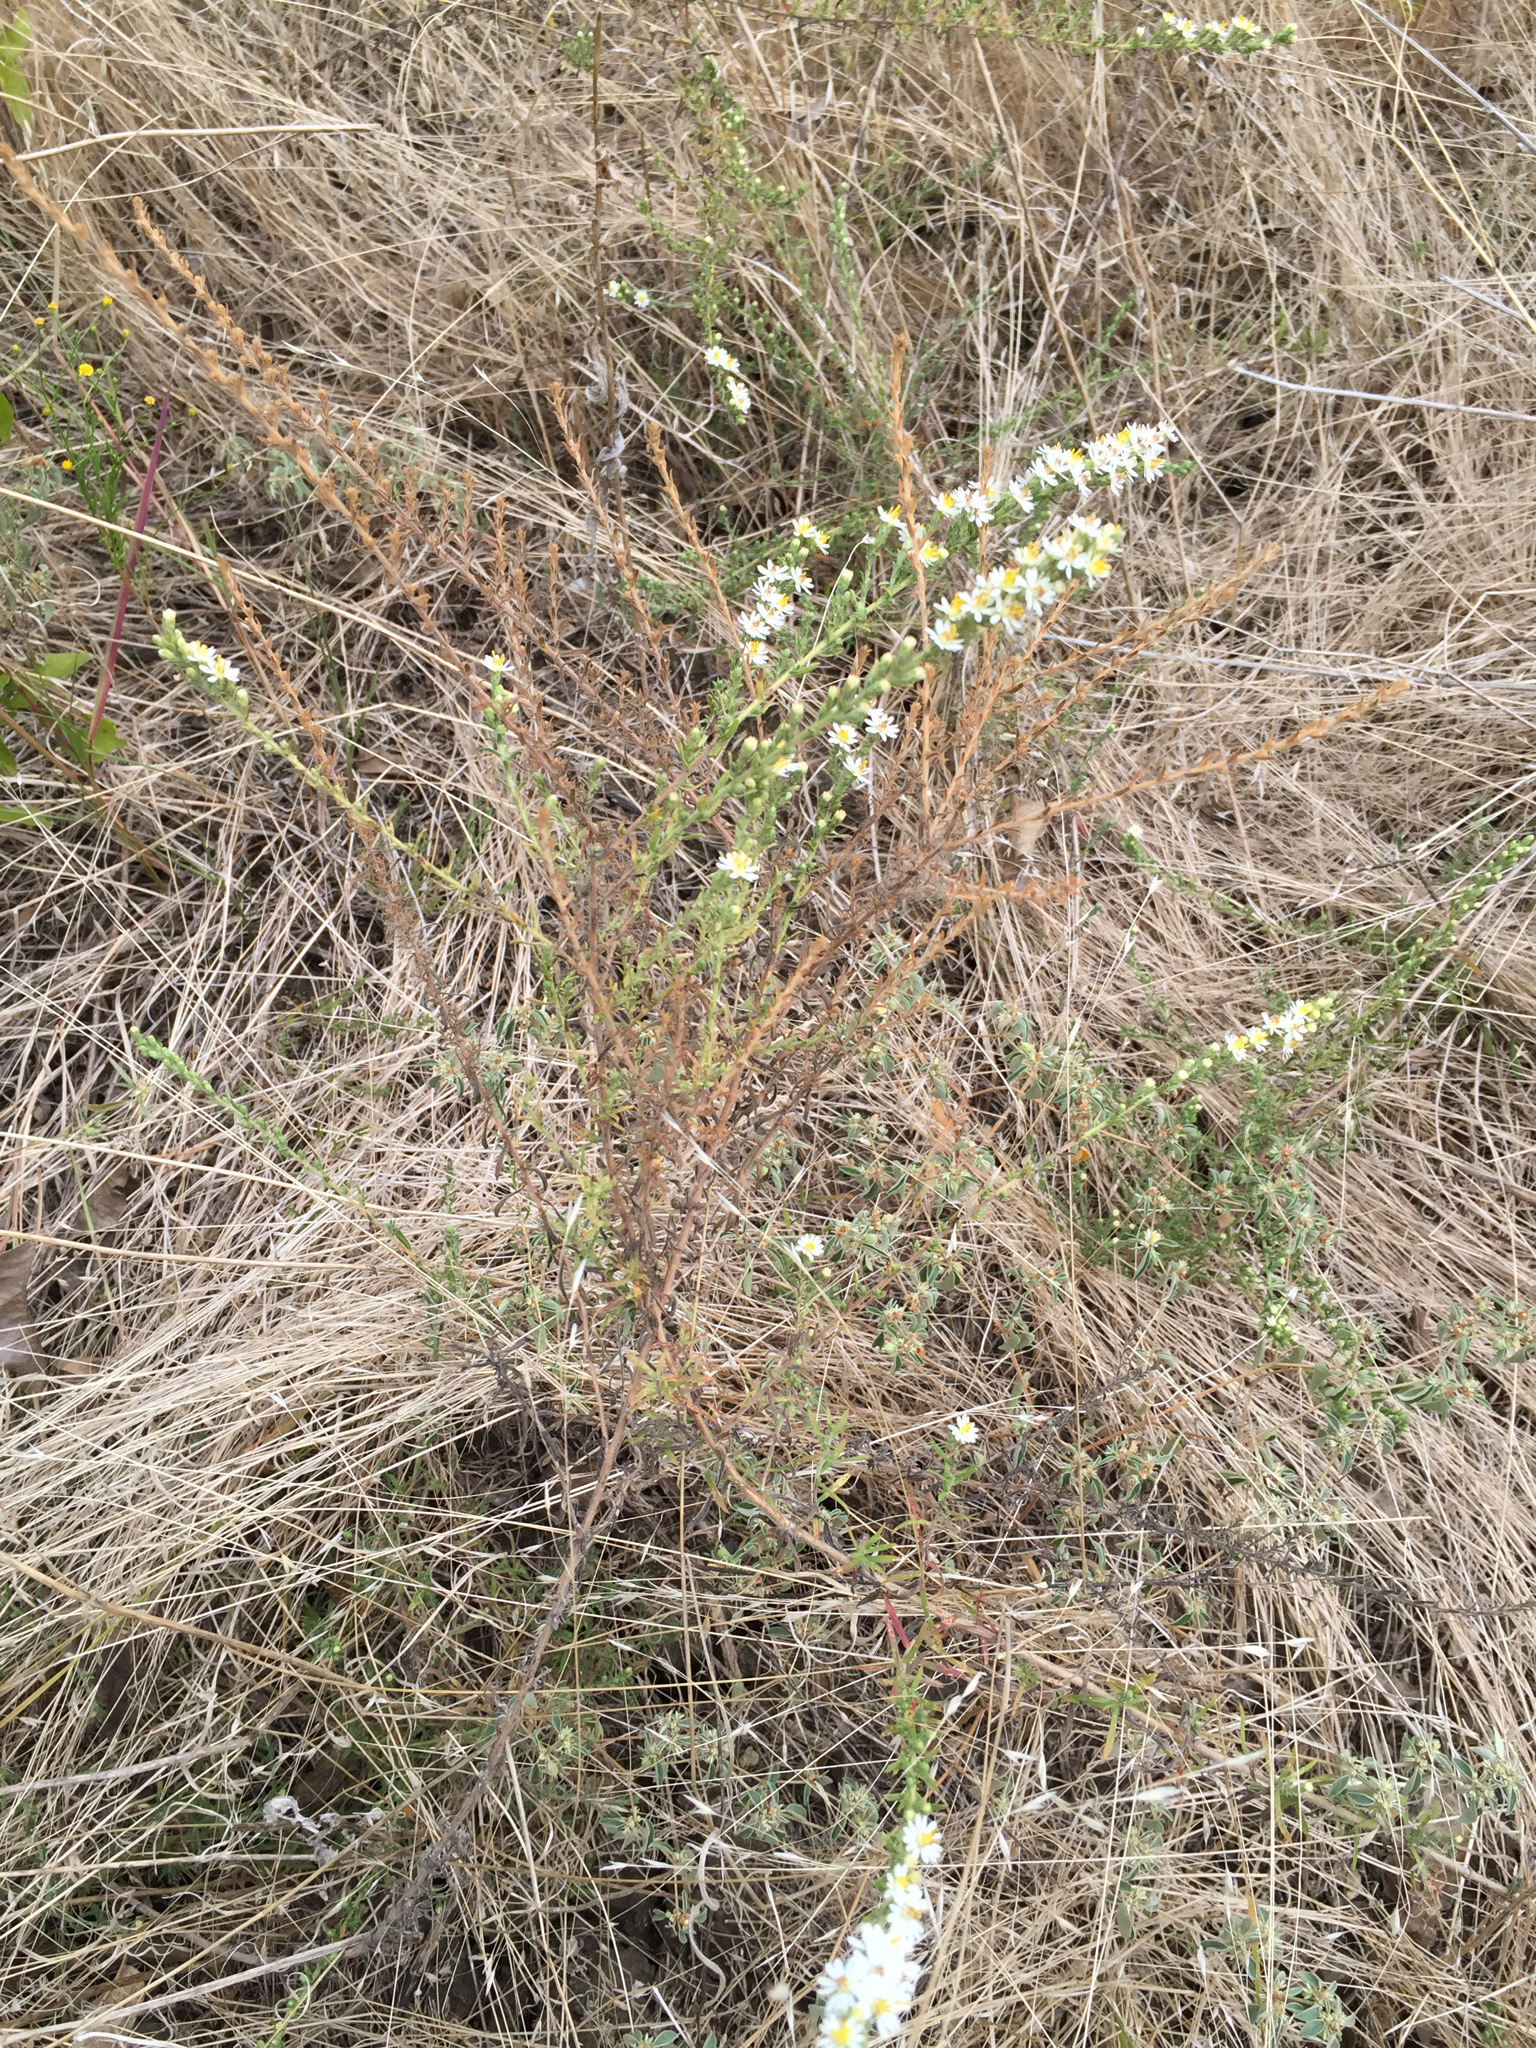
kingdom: Plantae
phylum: Tracheophyta
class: Magnoliopsida
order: Asterales
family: Asteraceae
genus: Symphyotrichum
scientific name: Symphyotrichum ericoides
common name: Heath aster
